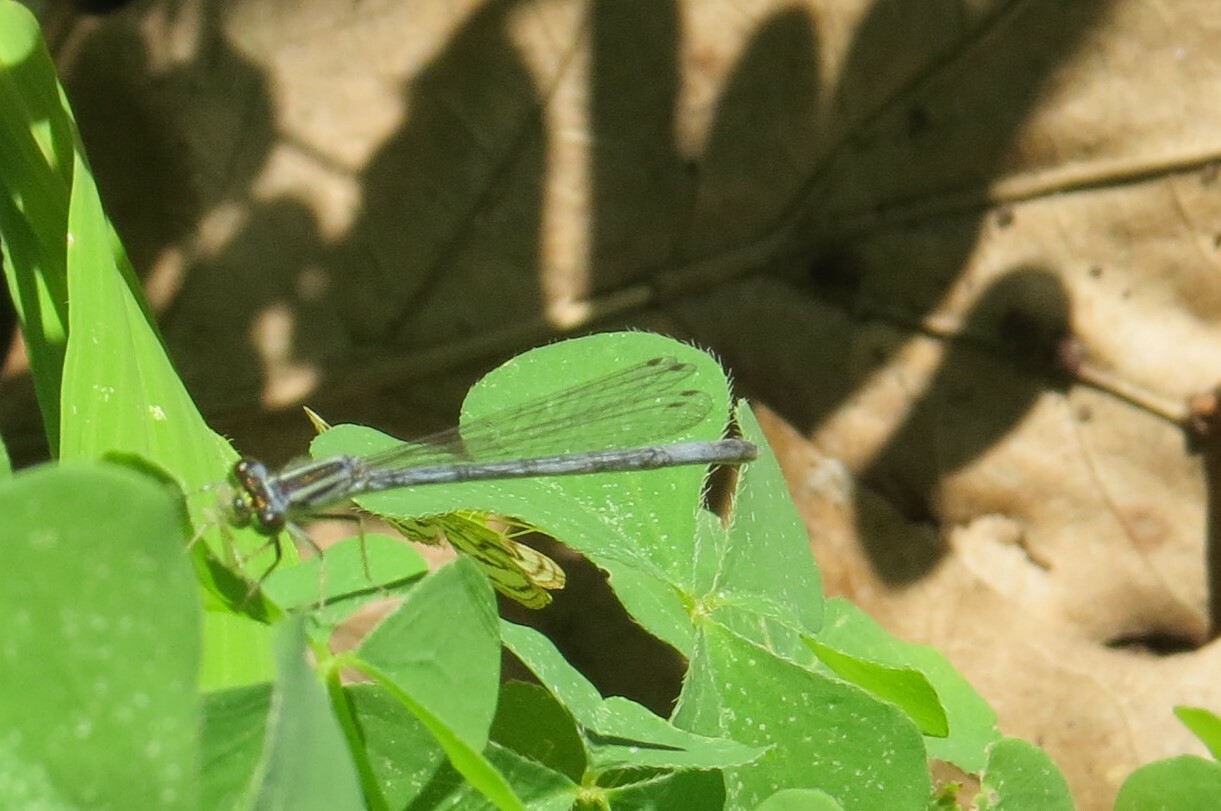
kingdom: Animalia
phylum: Arthropoda
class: Insecta
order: Odonata
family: Coenagrionidae
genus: Ischnura
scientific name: Ischnura verticalis
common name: Eastern forktail
